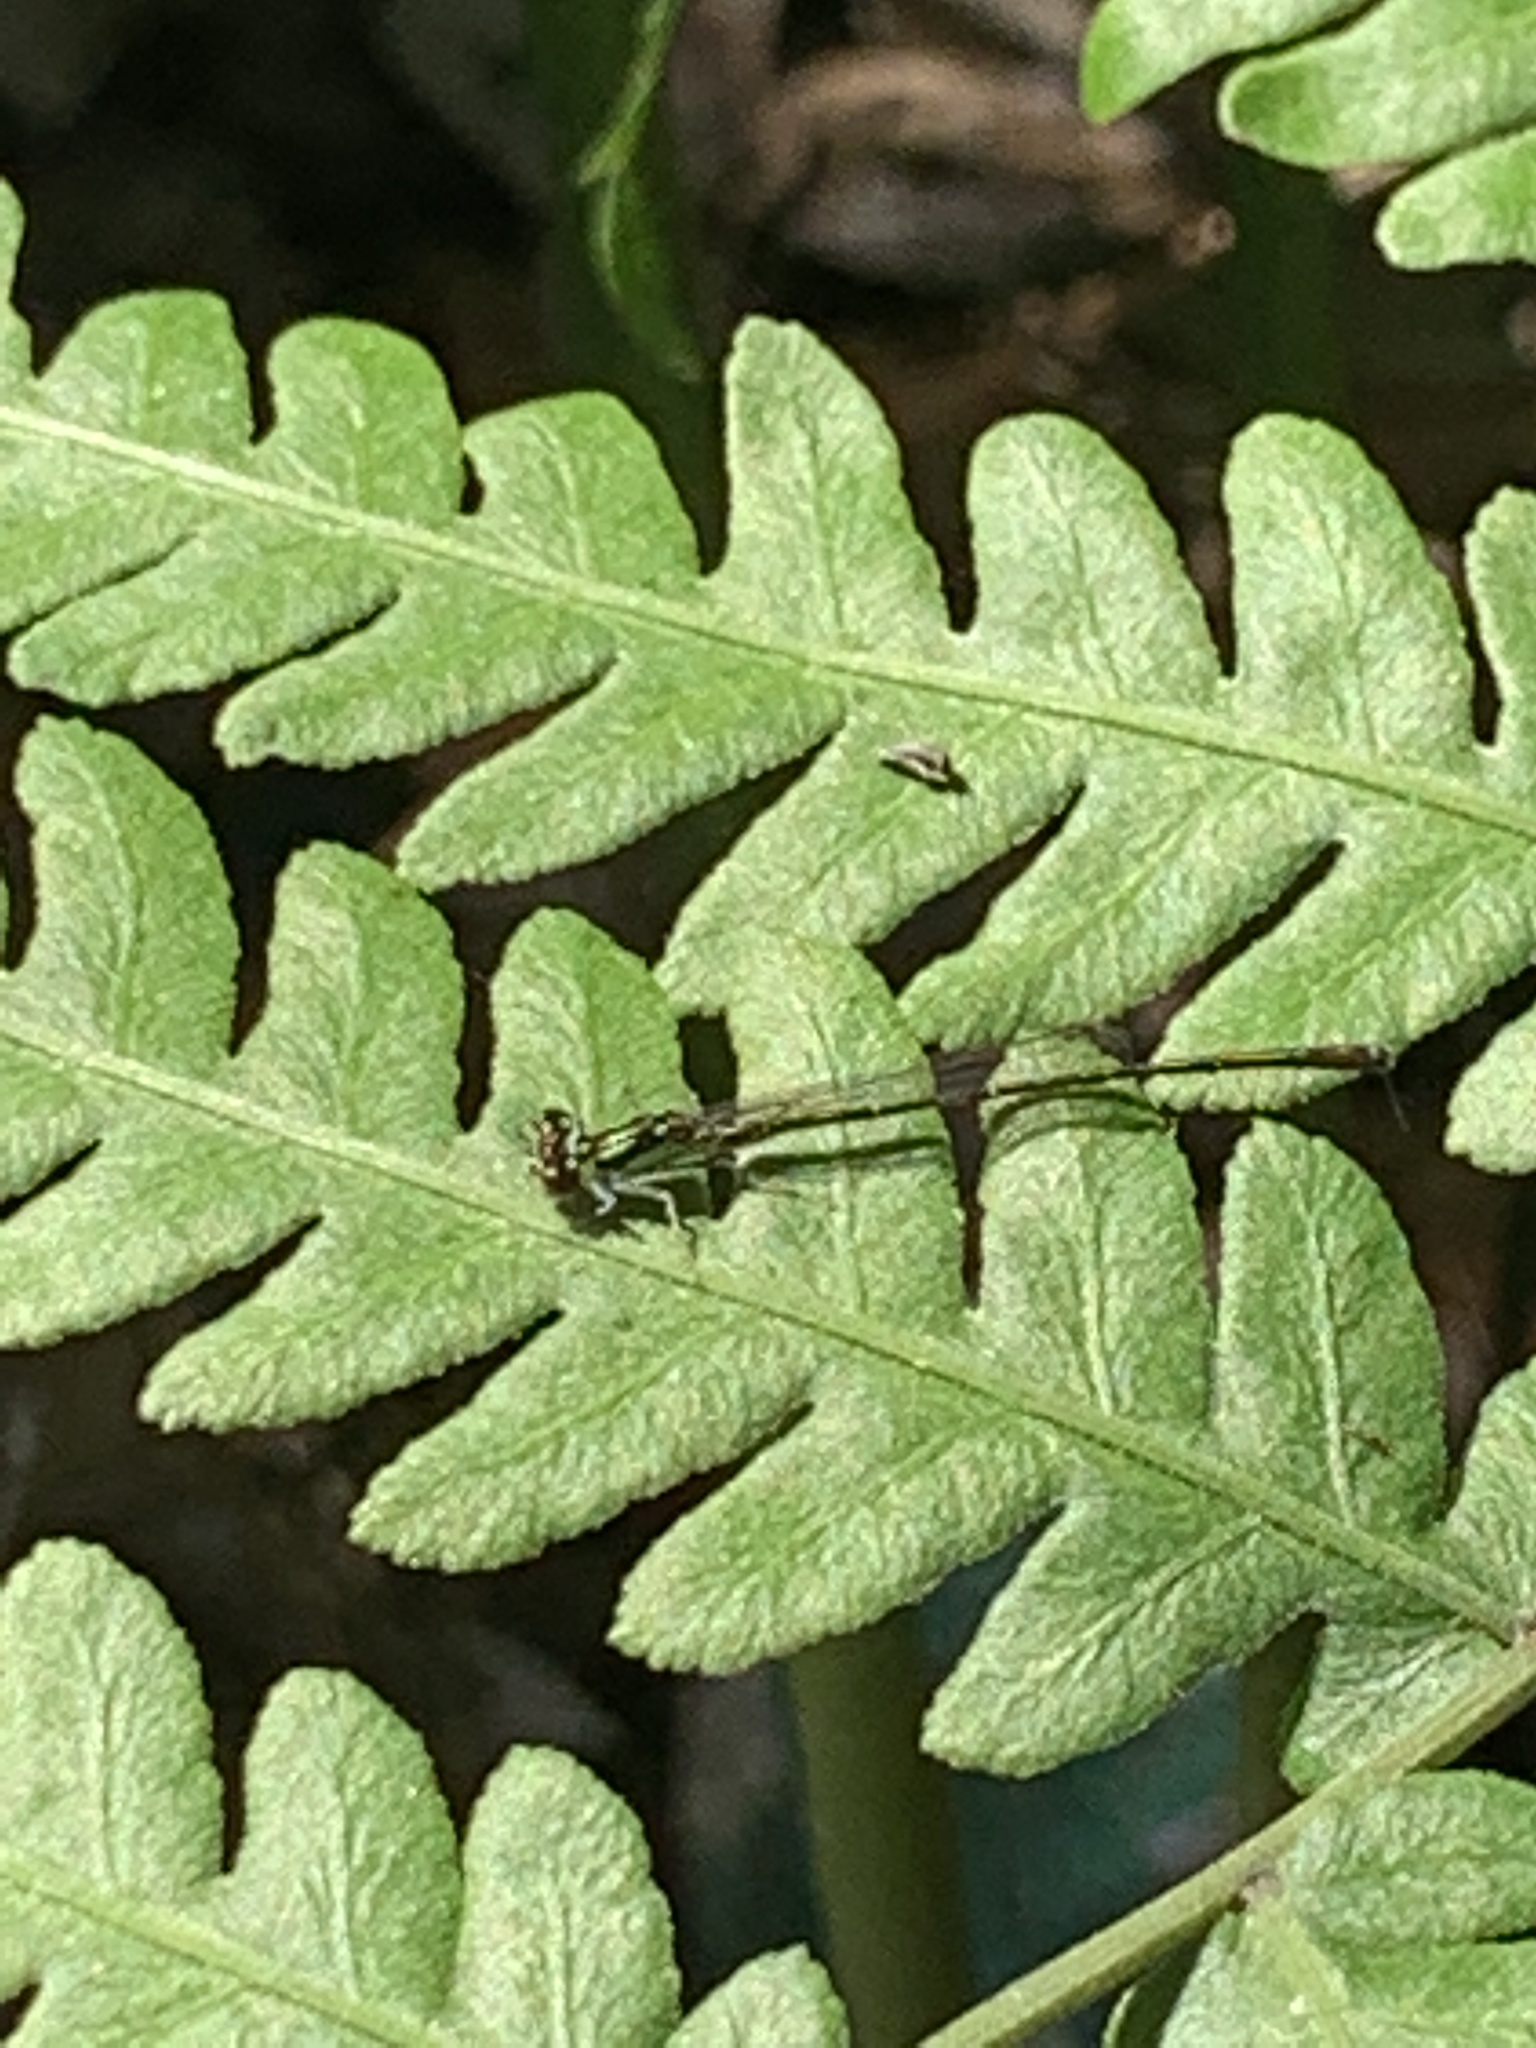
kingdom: Animalia
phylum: Arthropoda
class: Insecta
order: Odonata
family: Coenagrionidae
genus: Ischnura
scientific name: Ischnura posita
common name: Fragile forktail
